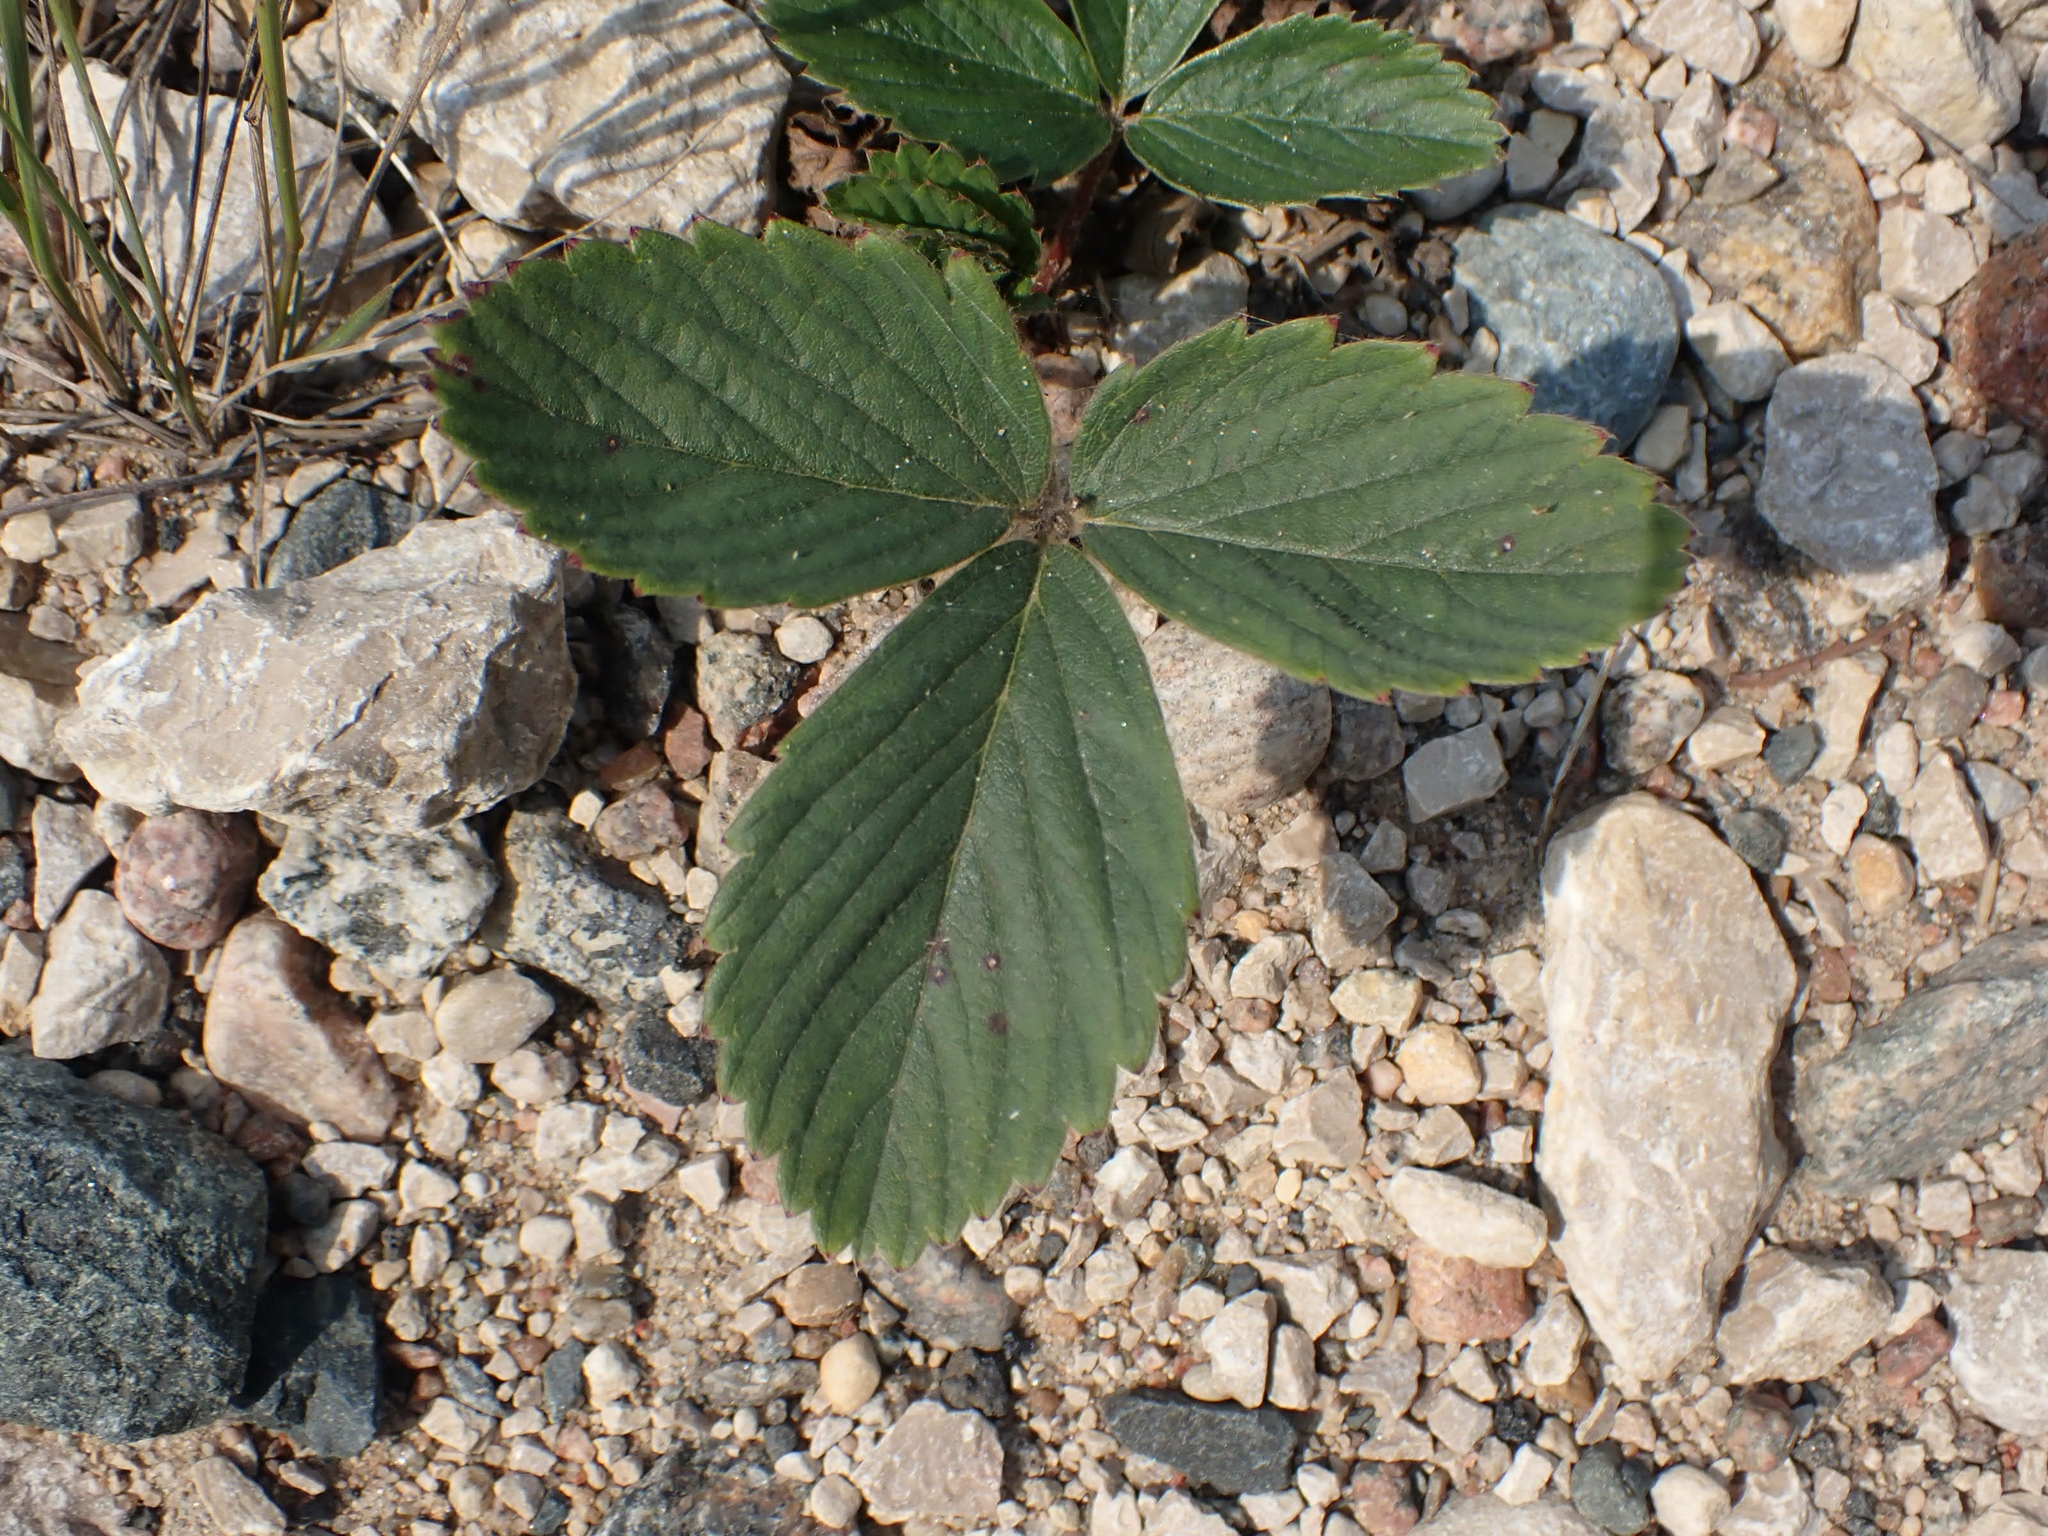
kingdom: Plantae
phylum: Tracheophyta
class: Magnoliopsida
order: Rosales
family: Rosaceae
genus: Fragaria
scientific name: Fragaria virginiana
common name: Thickleaved wild strawberry
